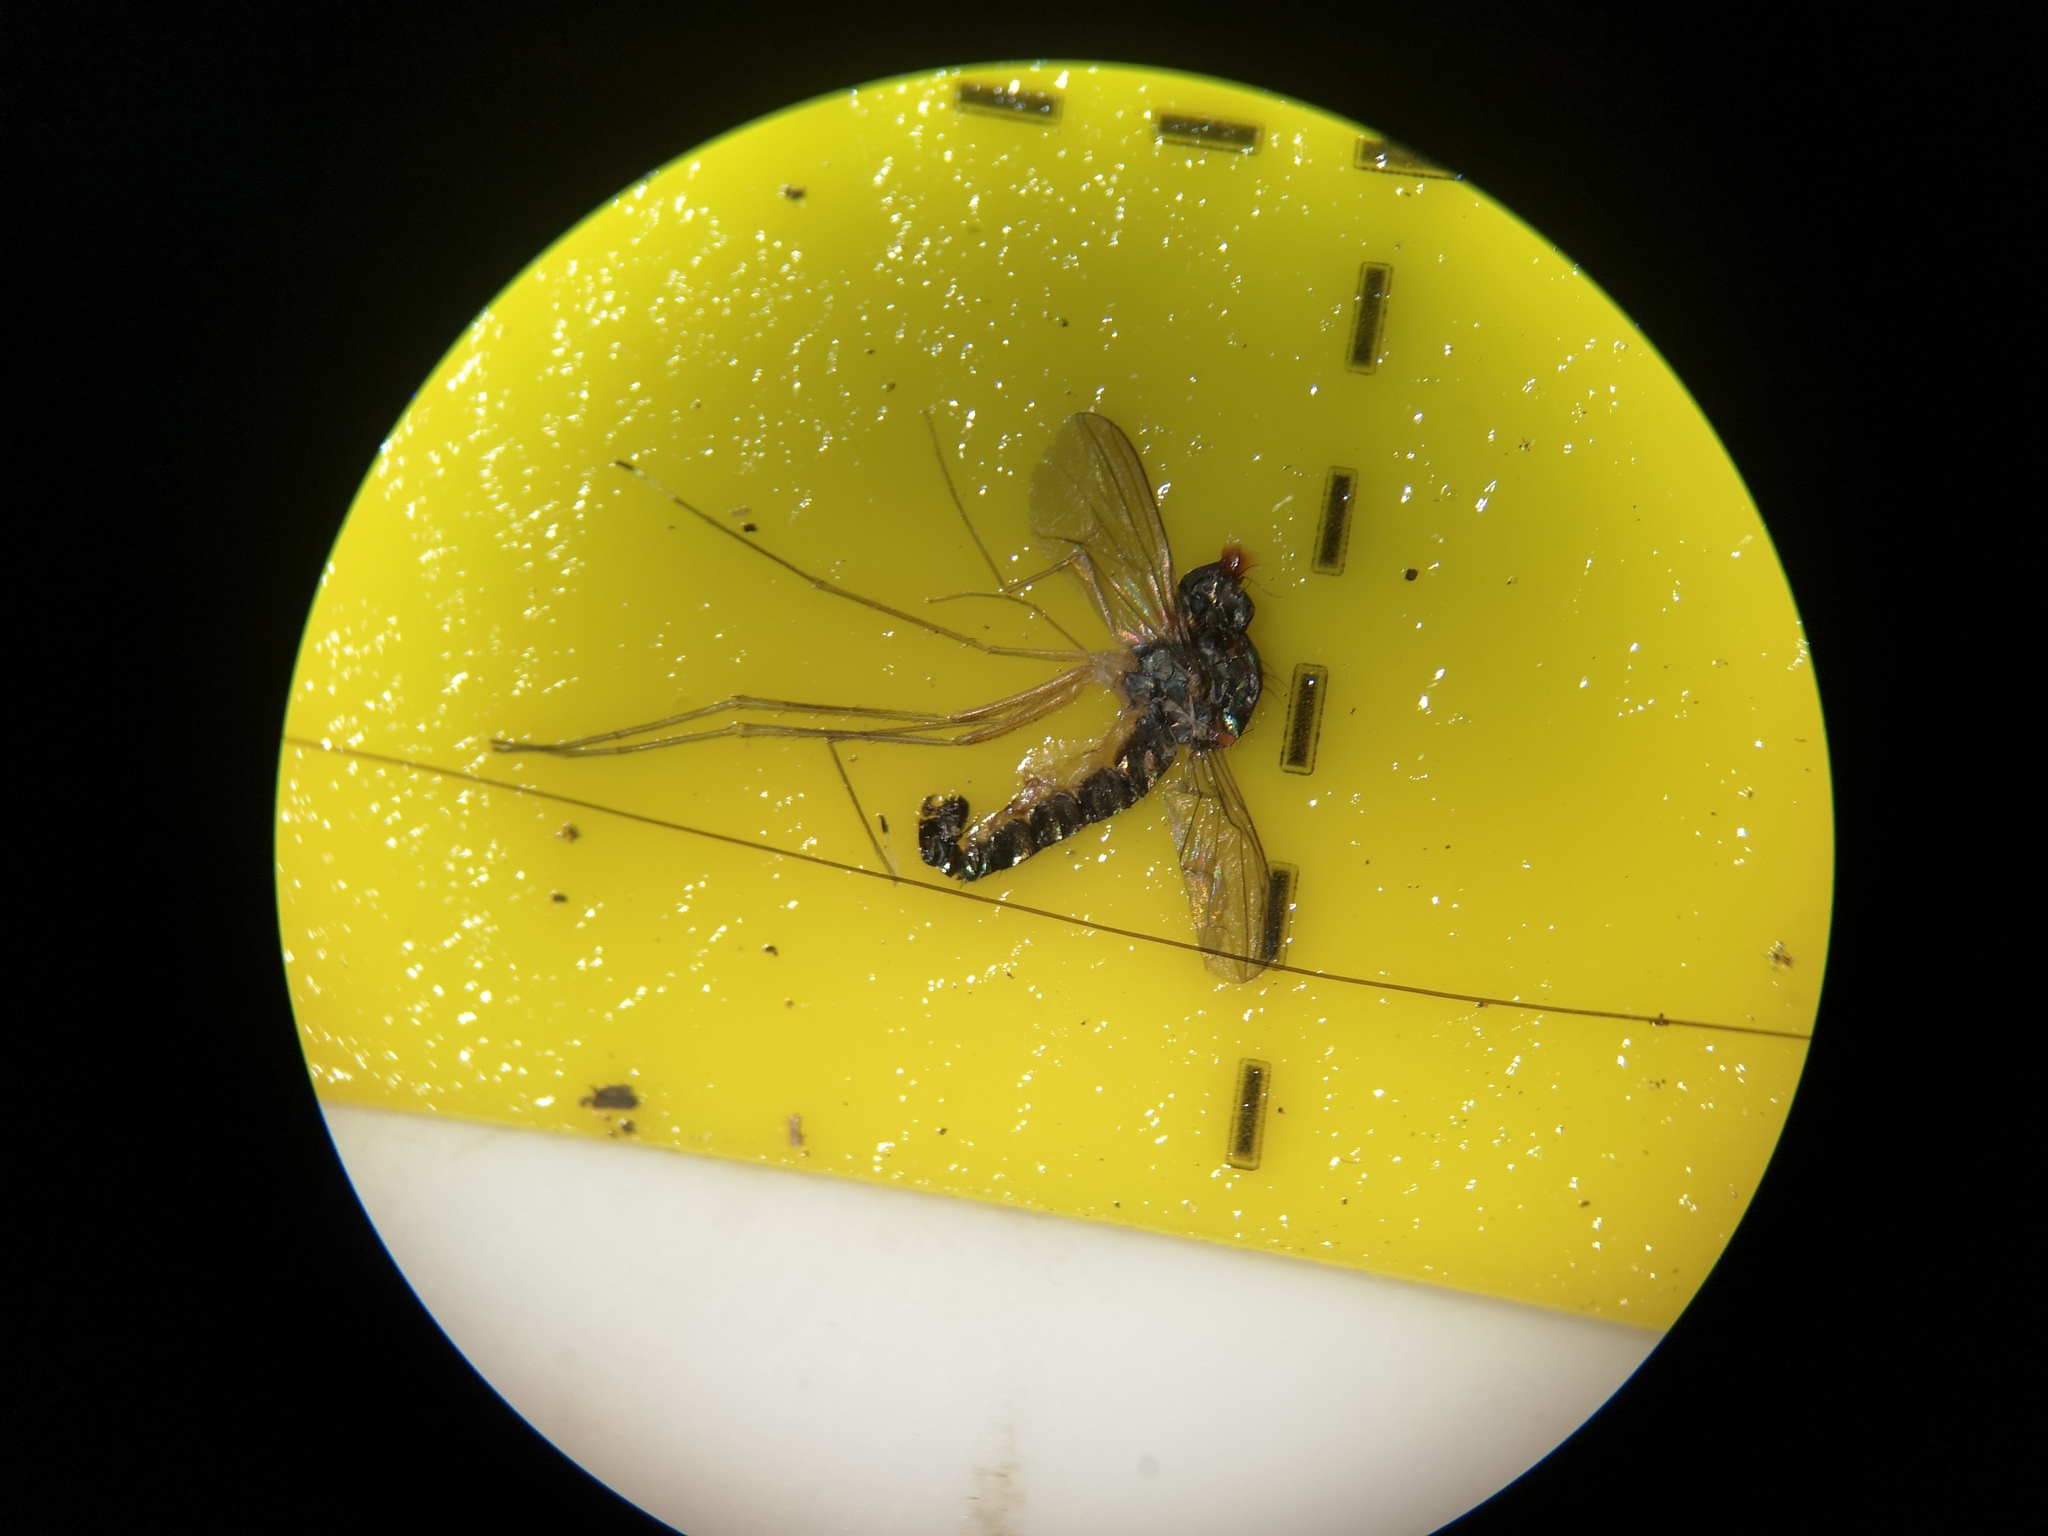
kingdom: Animalia
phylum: Arthropoda
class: Insecta
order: Diptera
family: Dolichopodidae
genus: Sciapus
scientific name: Sciapus platypterus
